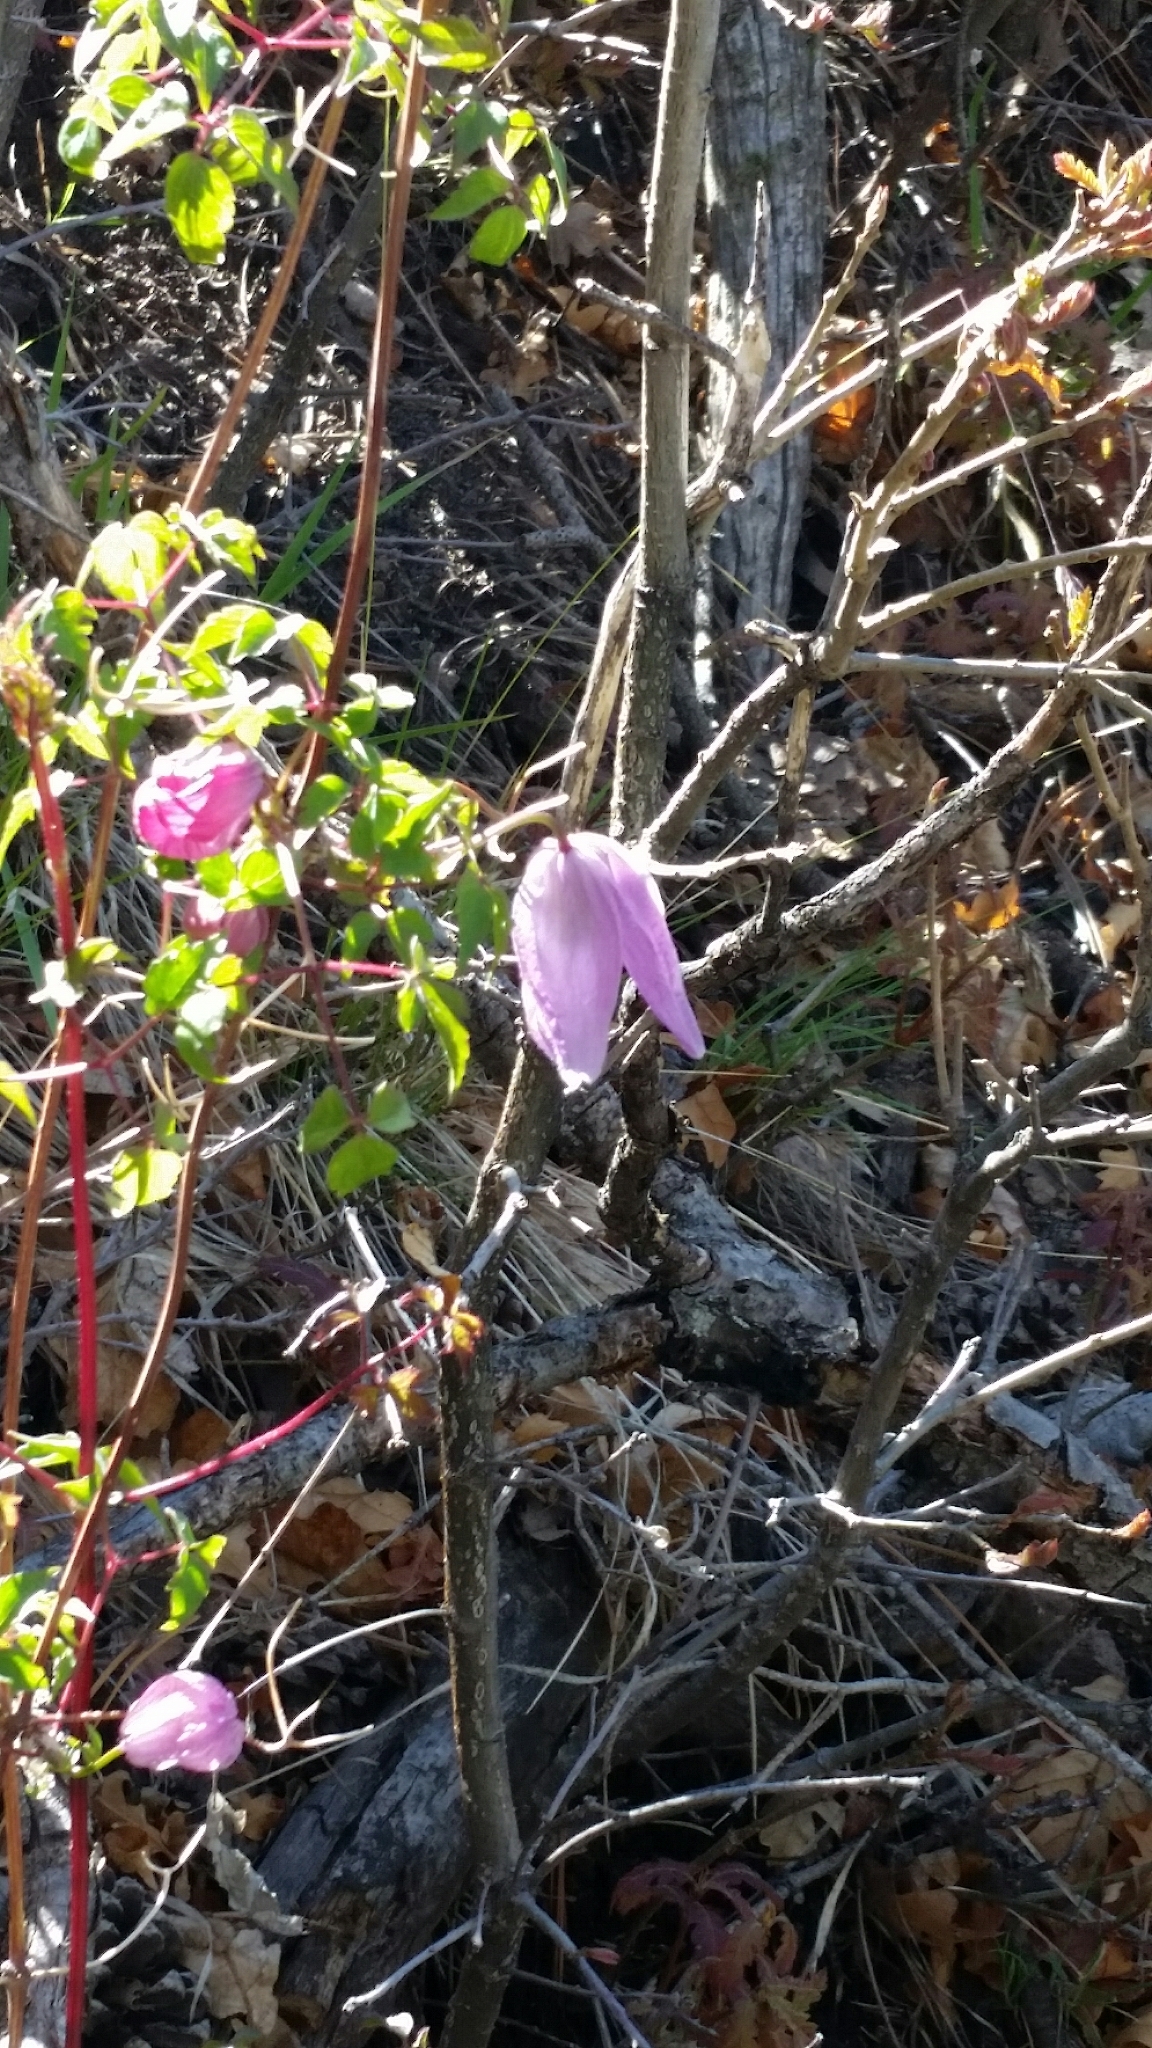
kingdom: Plantae
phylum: Tracheophyta
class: Magnoliopsida
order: Ranunculales
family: Ranunculaceae
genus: Clematis
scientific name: Clematis columbiana
